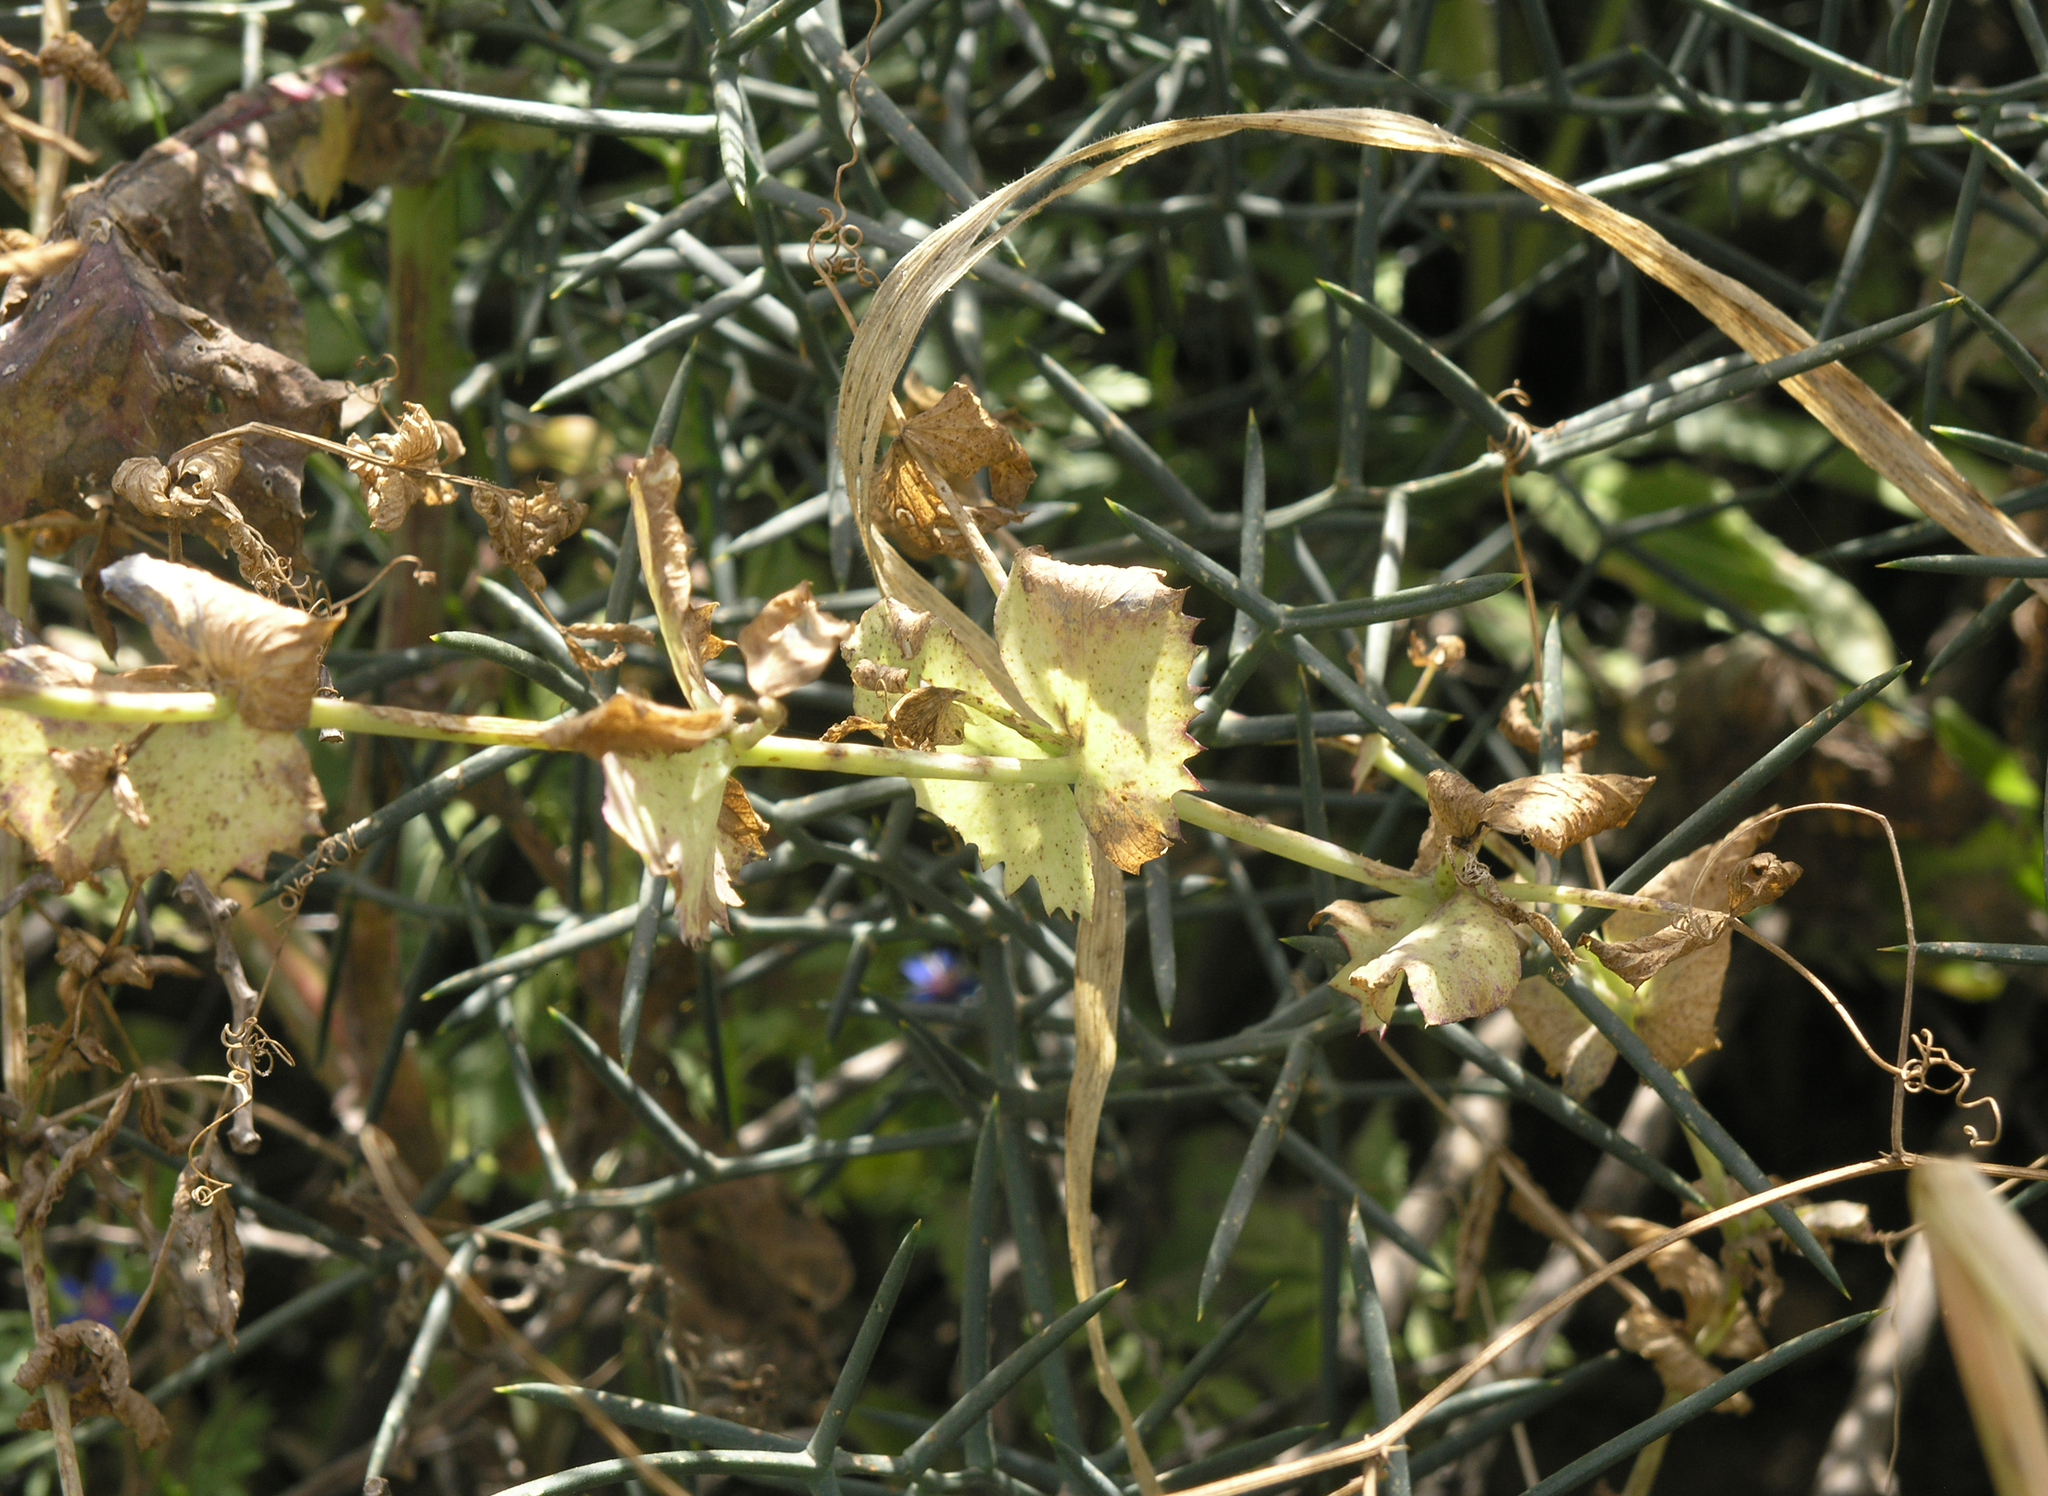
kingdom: Plantae
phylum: Tracheophyta
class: Magnoliopsida
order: Fabales
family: Fabaceae
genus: Lathyrus
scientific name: Lathyrus fulvus
